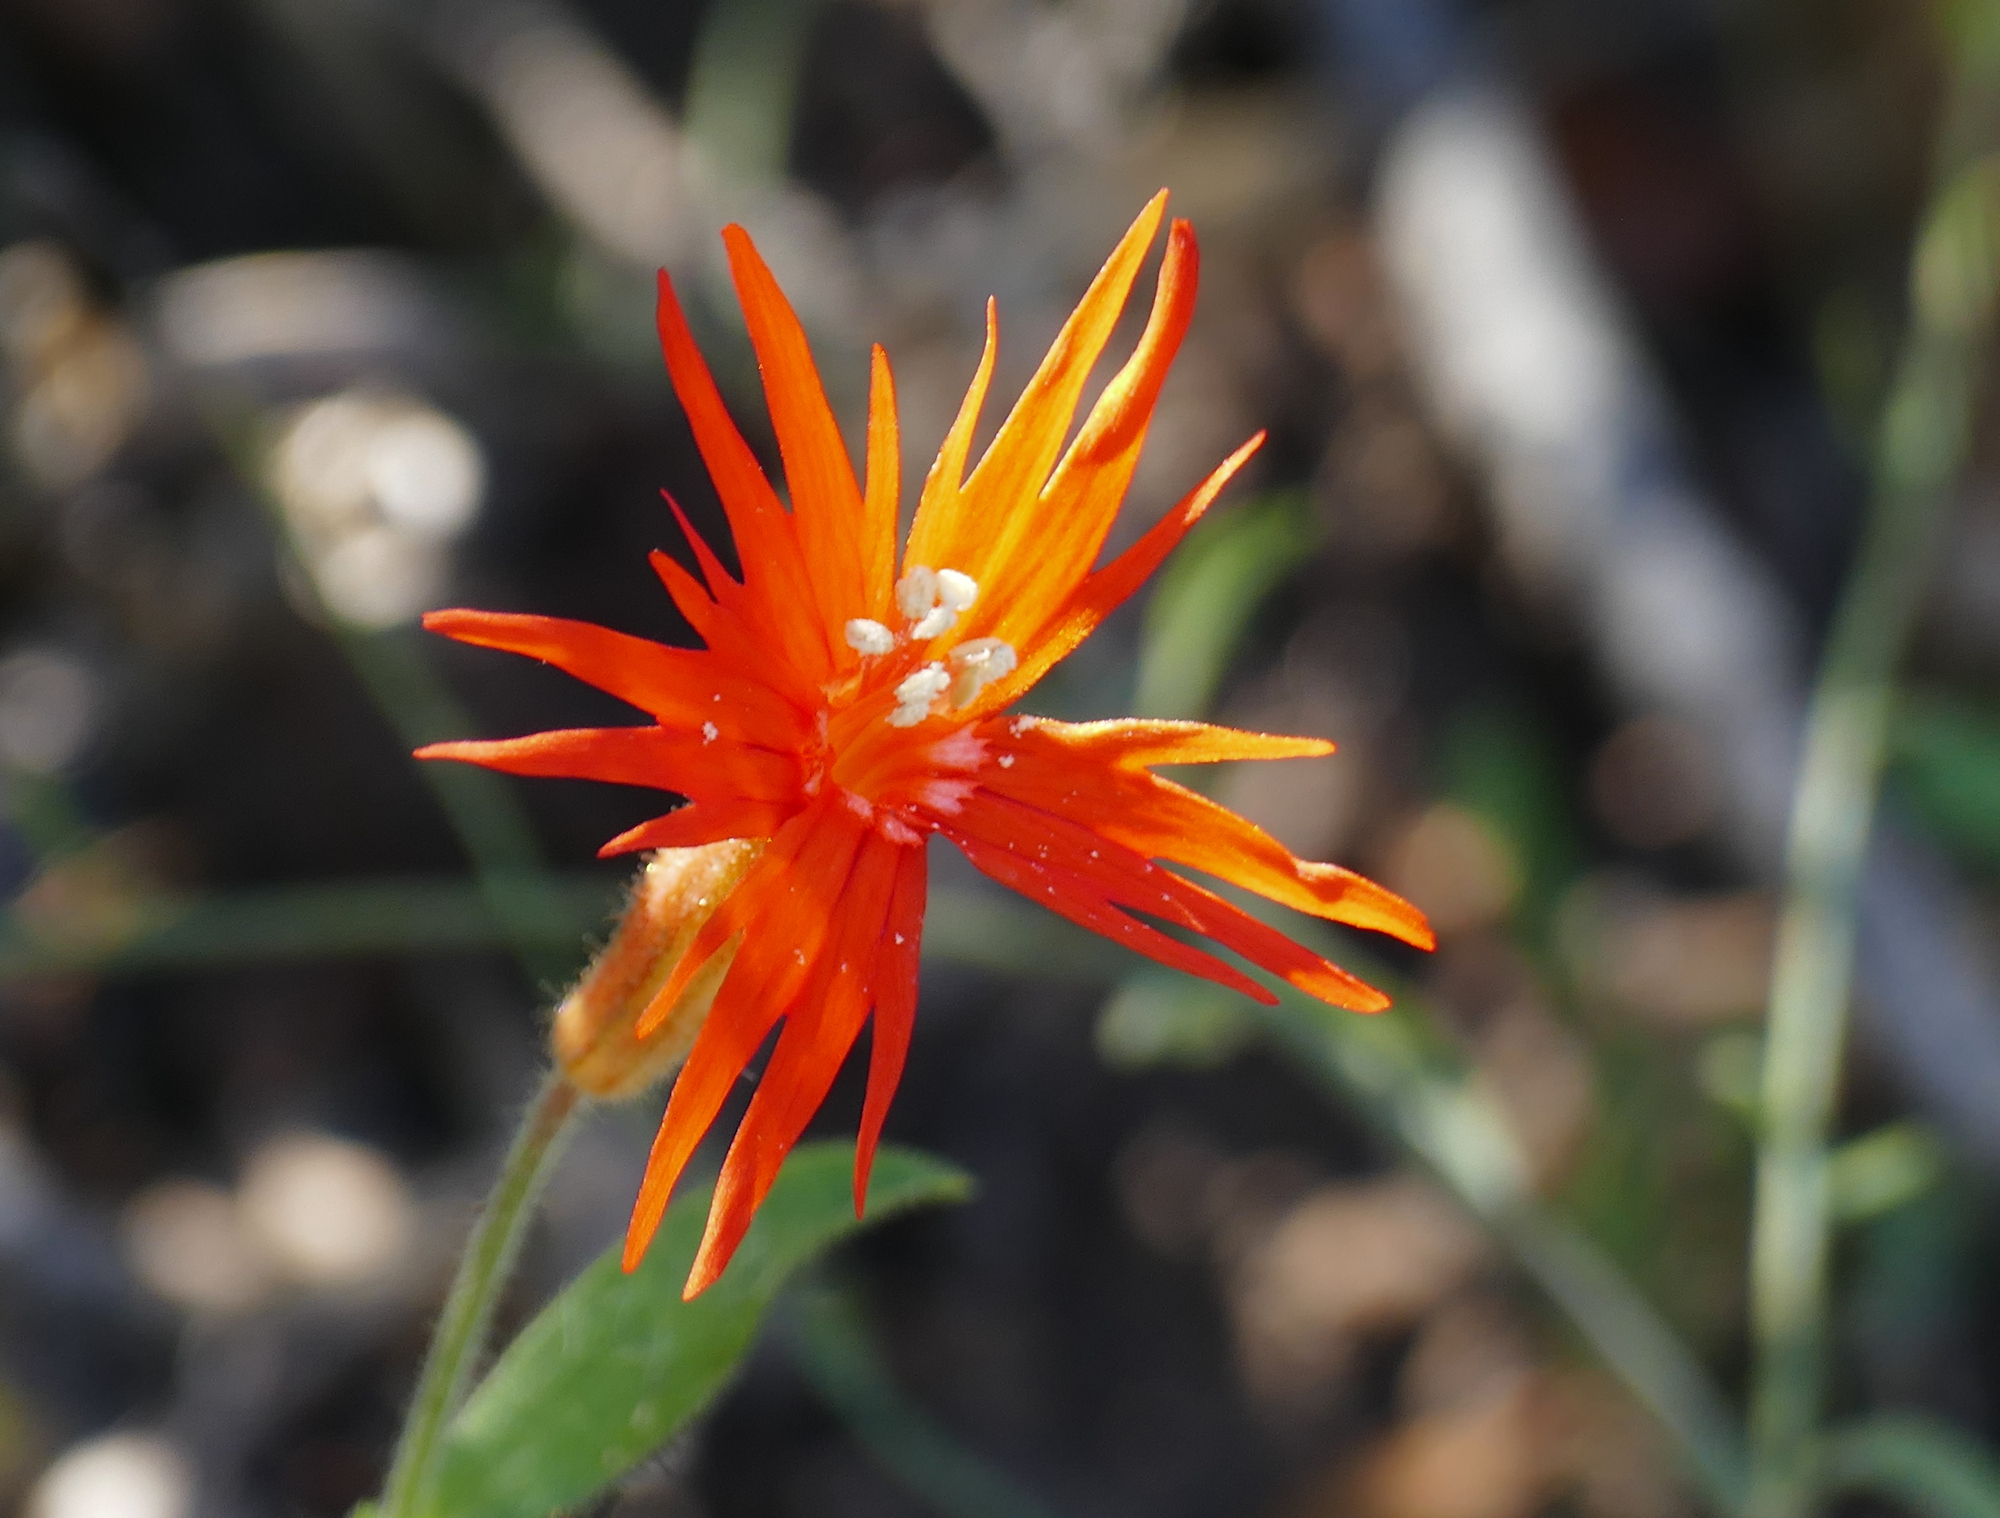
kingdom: Plantae
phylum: Tracheophyta
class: Magnoliopsida
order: Caryophyllales
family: Caryophyllaceae
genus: Silene
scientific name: Silene laciniata
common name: Indian-pink
